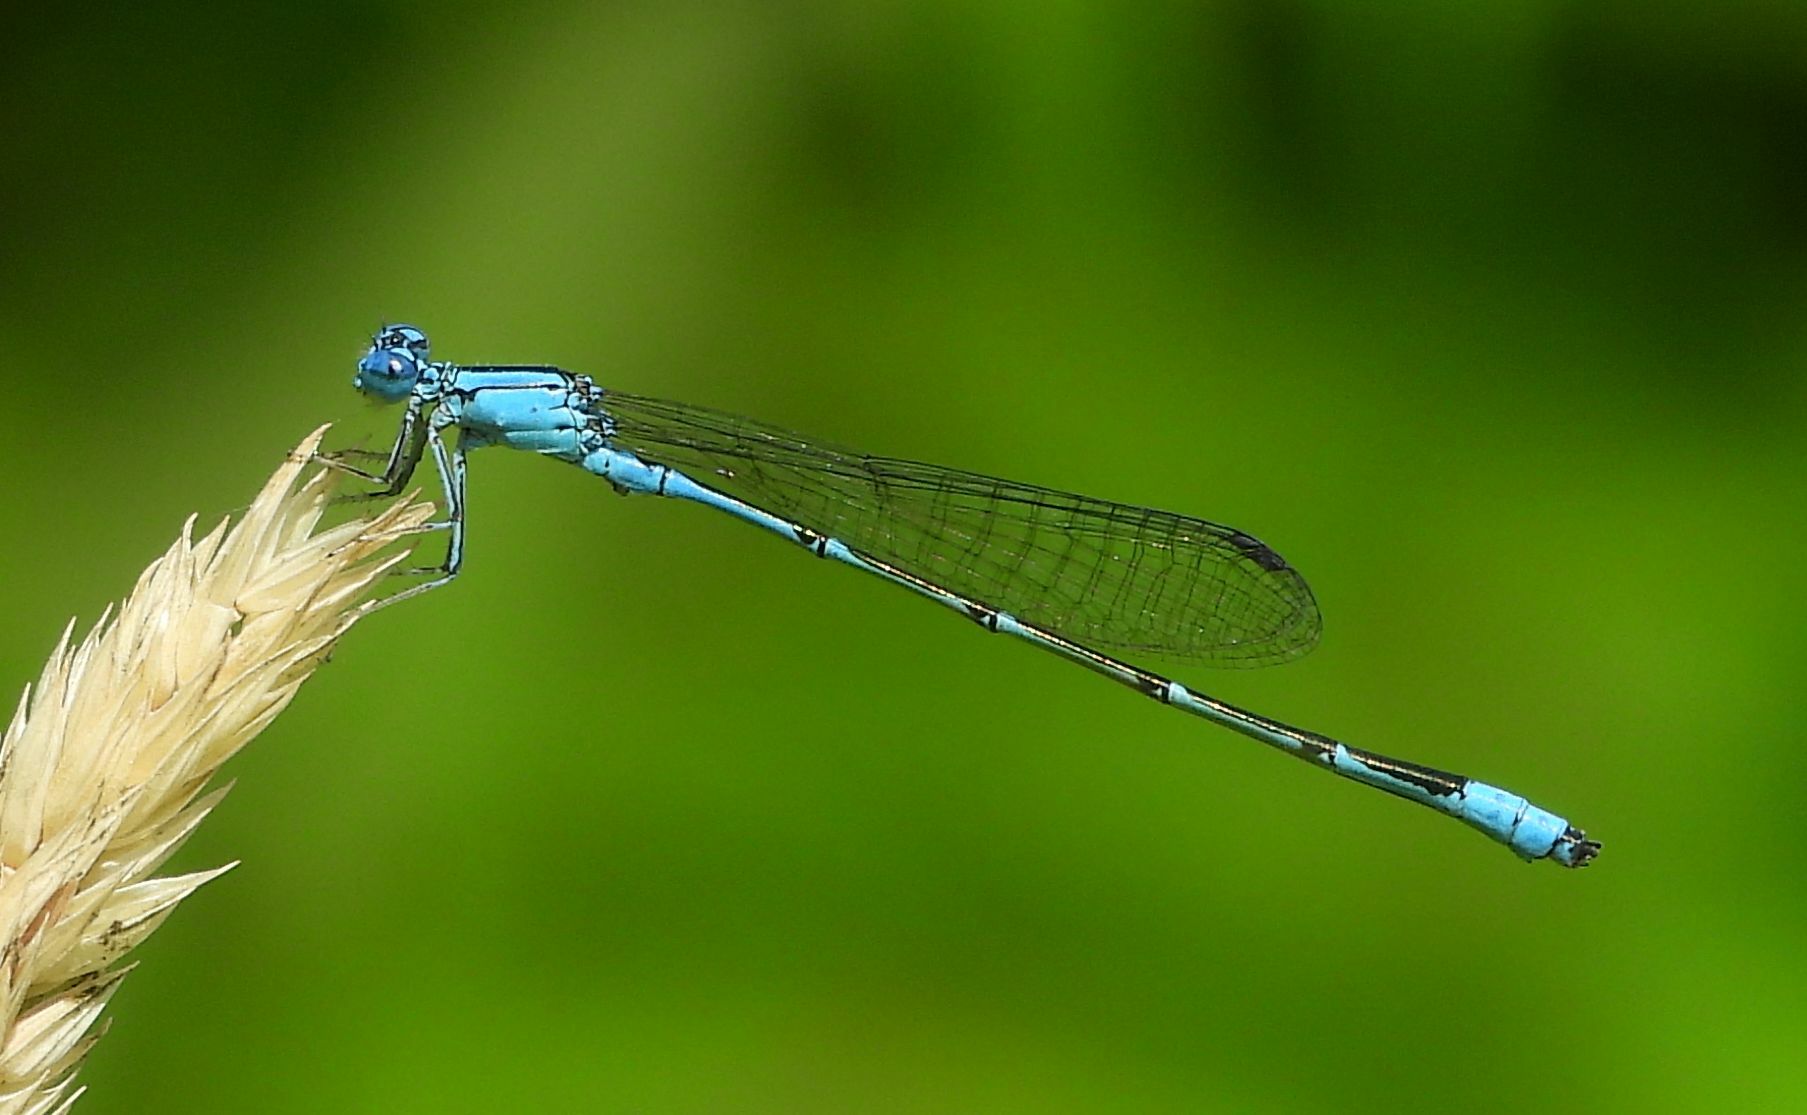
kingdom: Animalia
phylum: Arthropoda
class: Insecta
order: Odonata
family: Coenagrionidae
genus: Enallagma
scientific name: Enallagma traviatum
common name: Slender bluet
